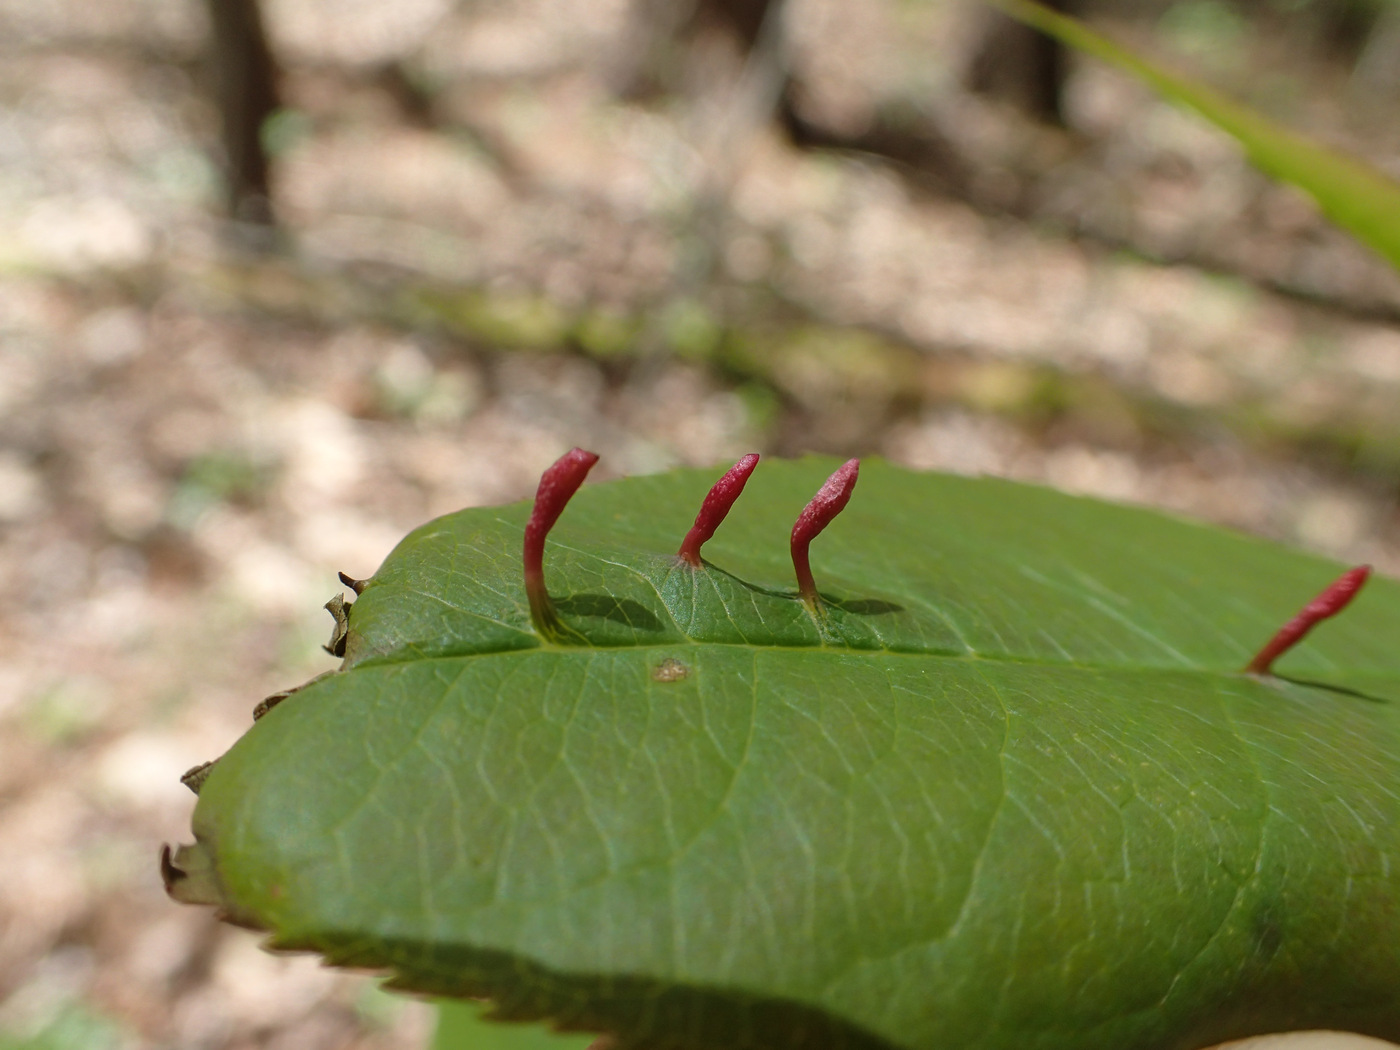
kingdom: Animalia
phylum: Arthropoda
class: Arachnida
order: Trombidiformes
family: Eriophyidae
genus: Eriophyes
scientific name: Eriophyes
